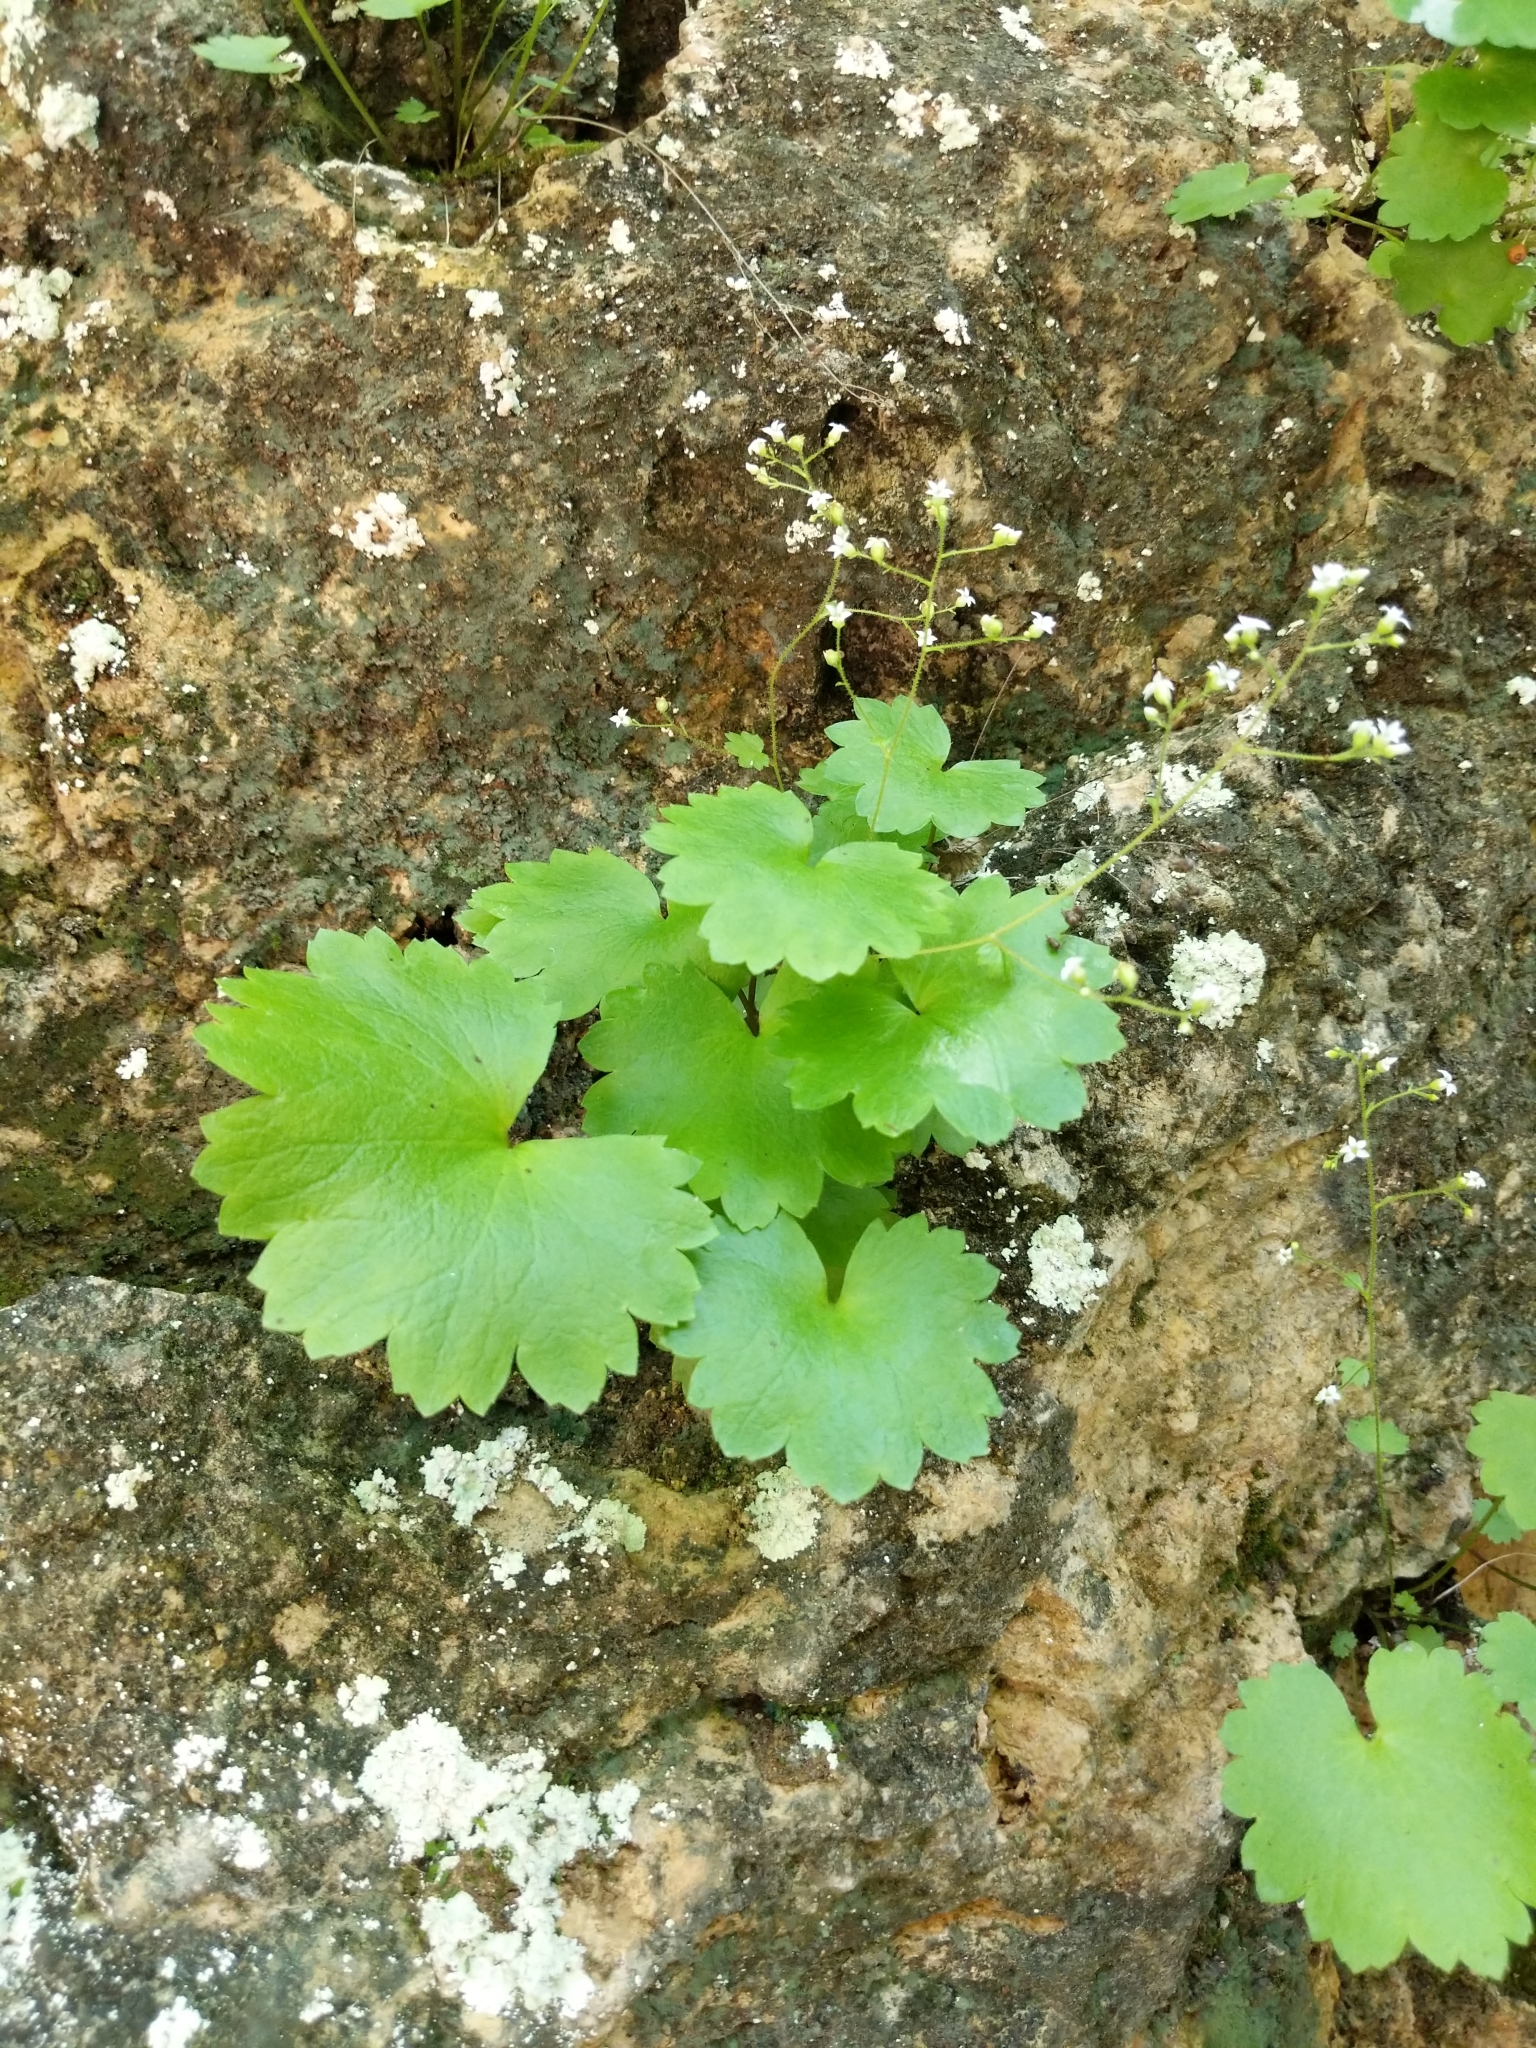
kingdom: Plantae
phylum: Tracheophyta
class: Magnoliopsida
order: Saxifragales
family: Saxifragaceae
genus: Sullivantia
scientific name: Sullivantia sullivantii
